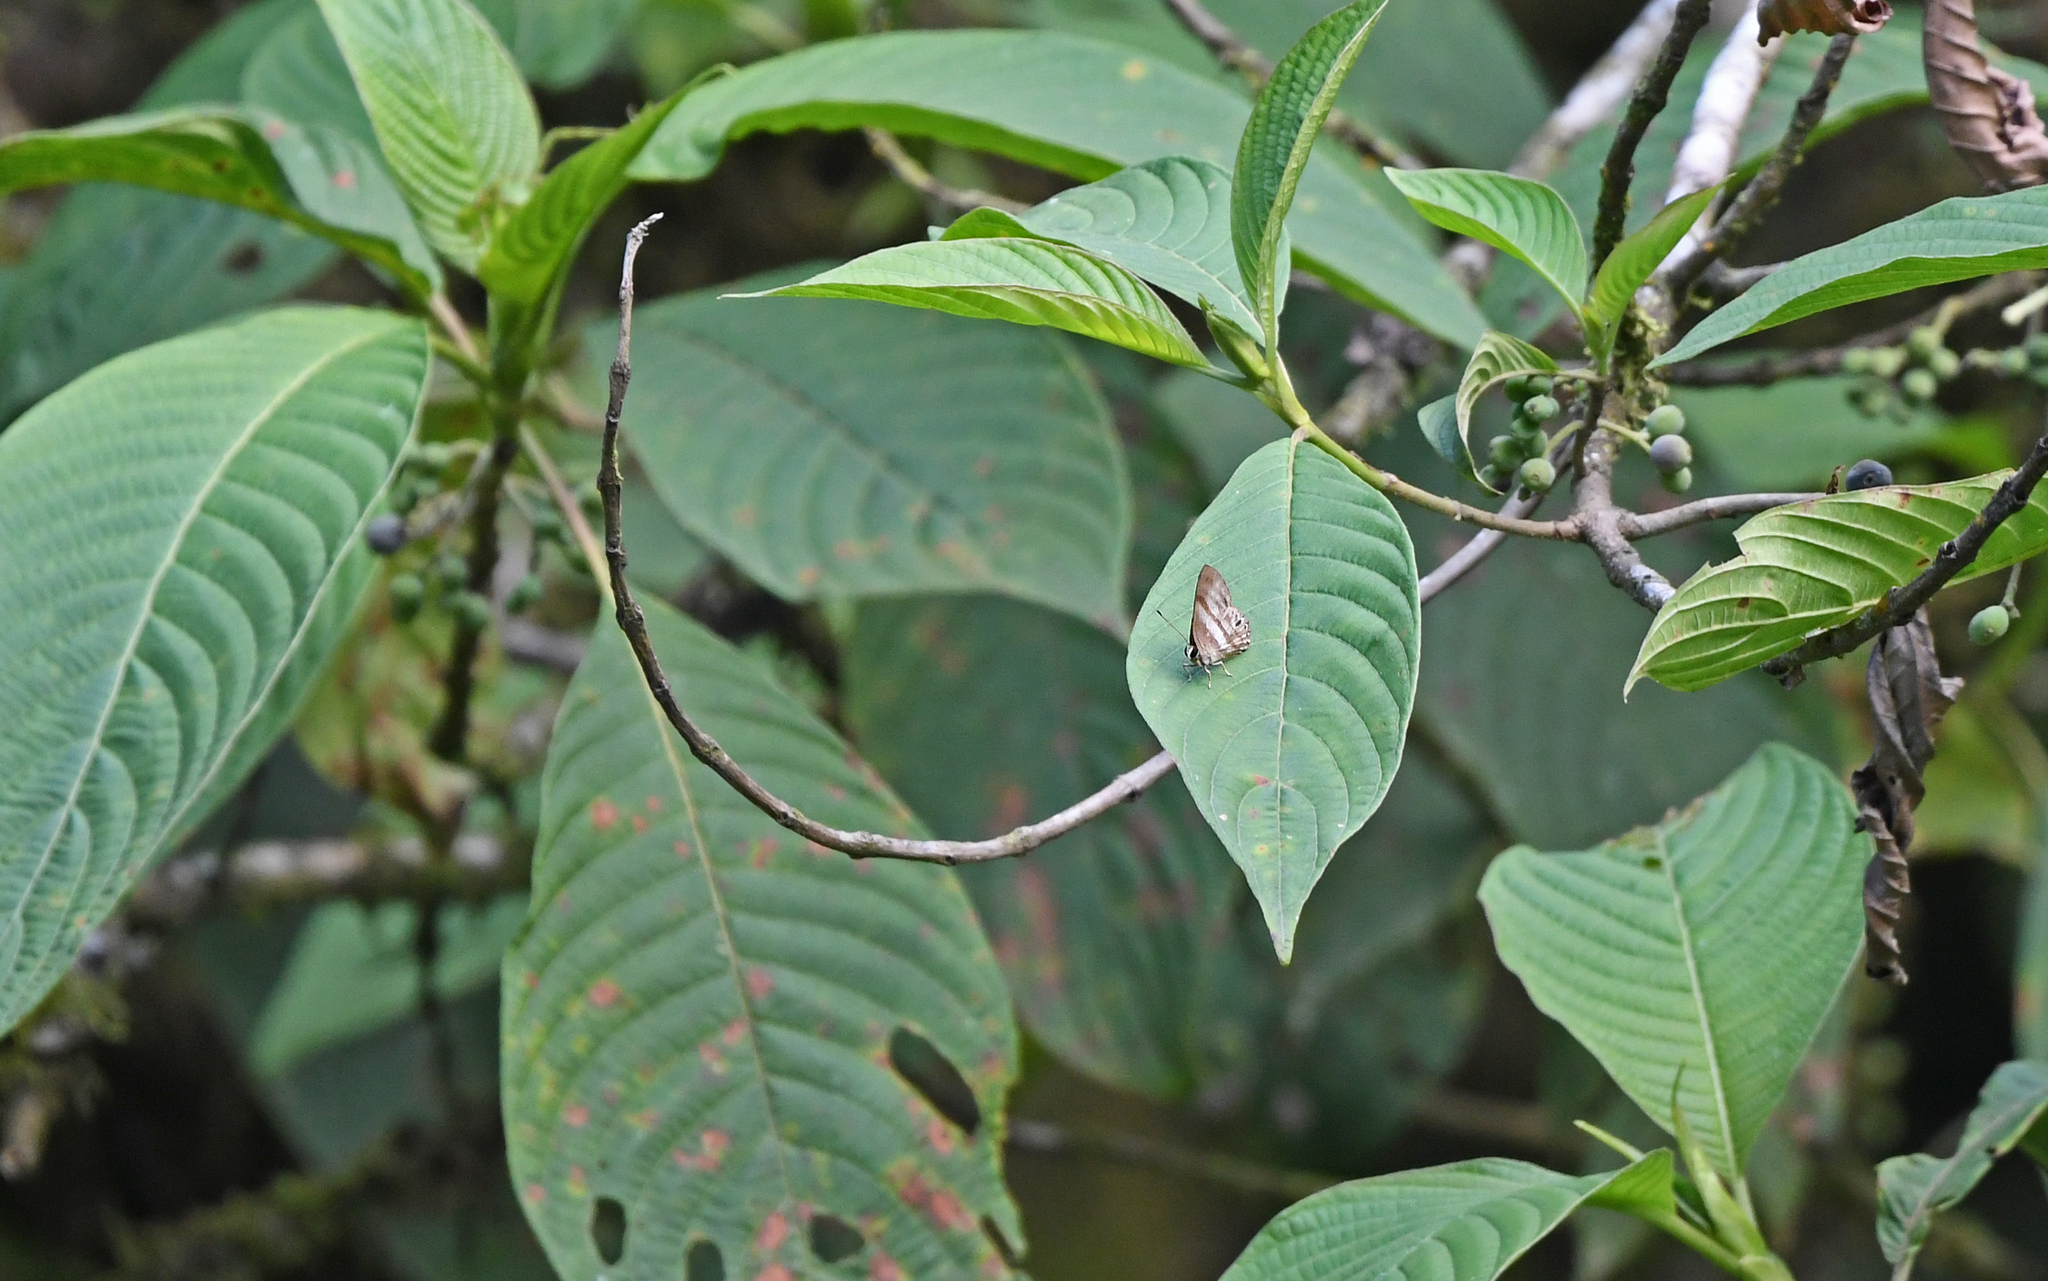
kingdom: Animalia
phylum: Arthropoda
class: Insecta
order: Lepidoptera
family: Riodinidae
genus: Pelolasia
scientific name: Pelolasia
